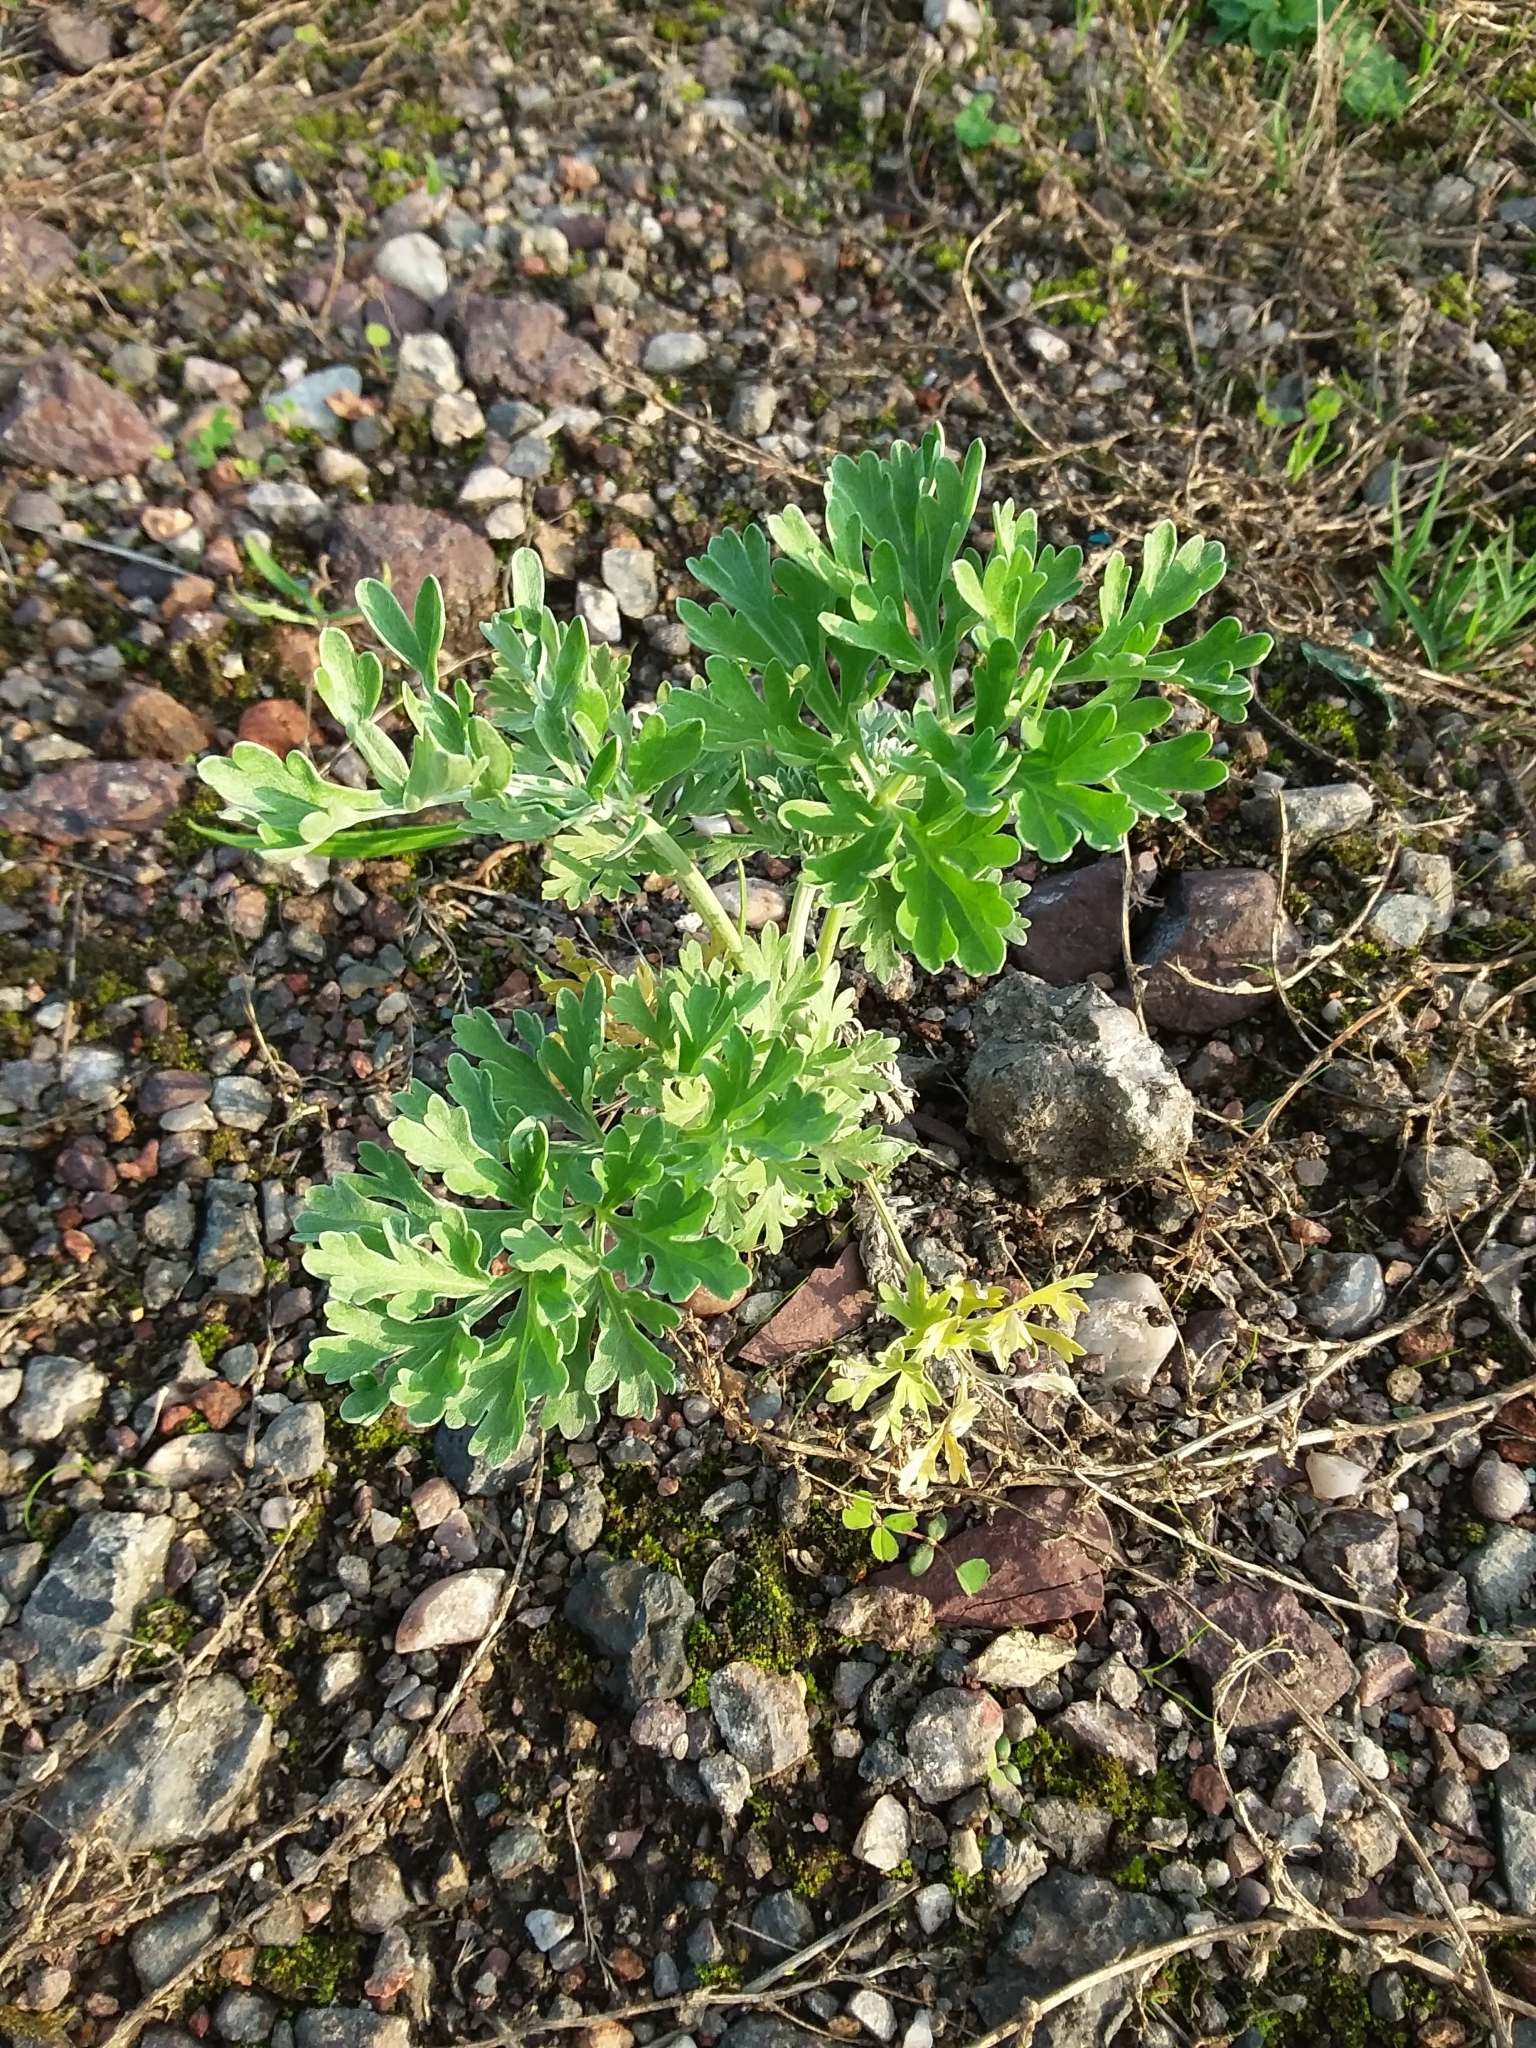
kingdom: Plantae
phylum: Tracheophyta
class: Magnoliopsida
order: Asterales
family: Asteraceae
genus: Artemisia
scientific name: Artemisia absinthium
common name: Wormwood
